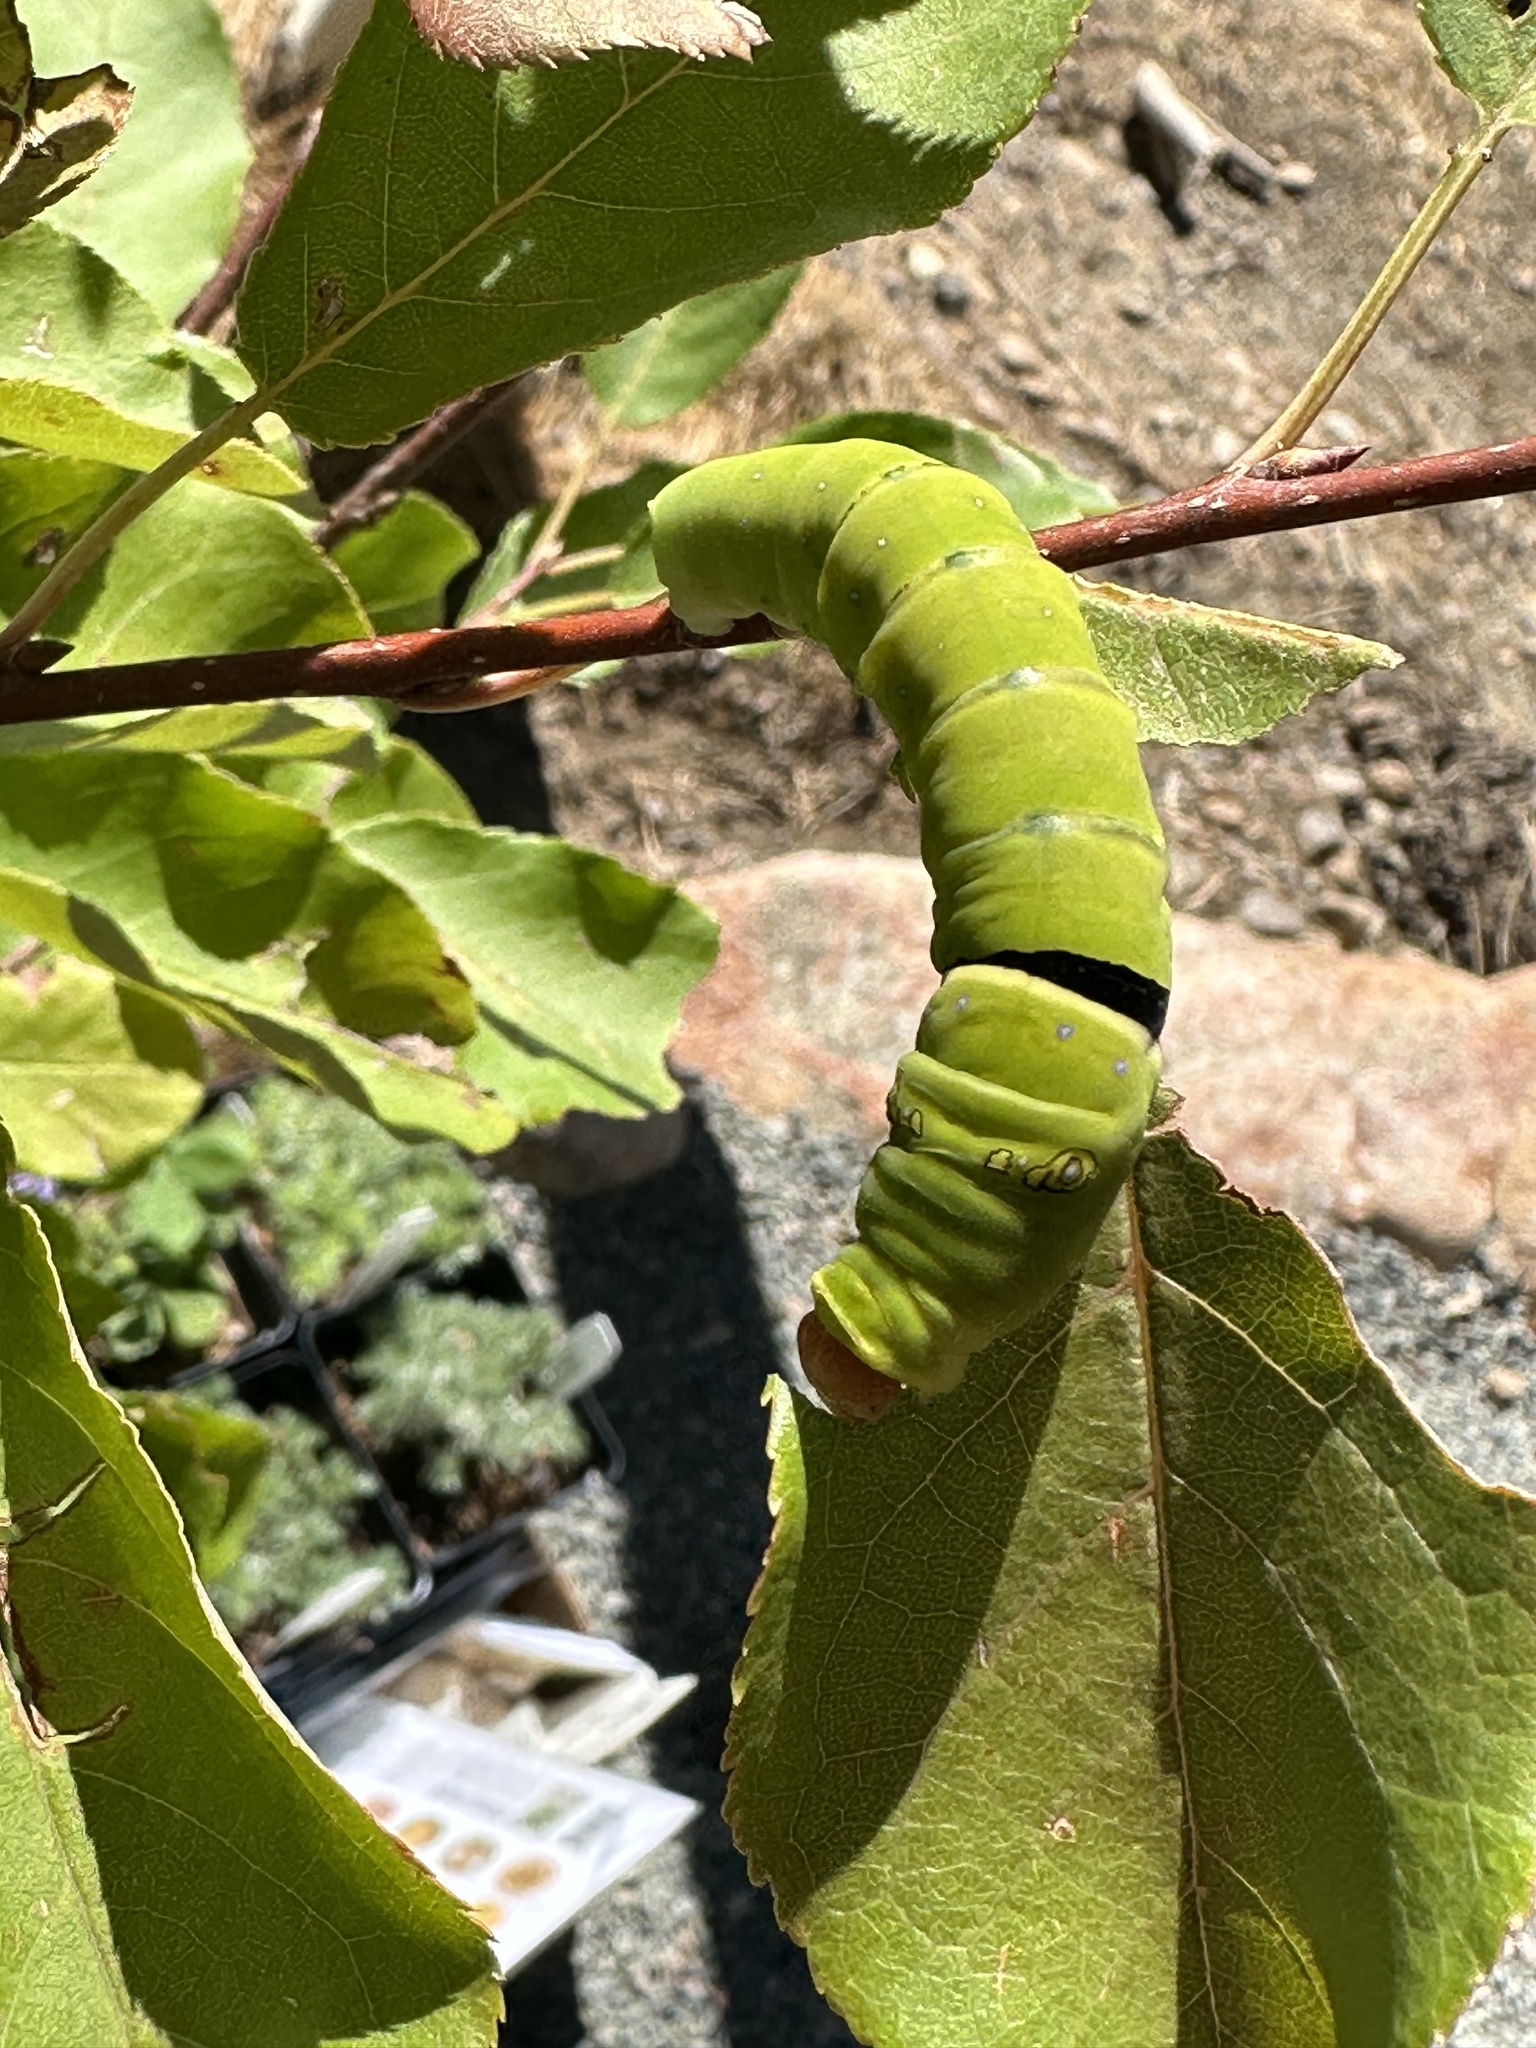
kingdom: Animalia
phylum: Arthropoda
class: Insecta
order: Lepidoptera
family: Papilionidae
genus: Papilio
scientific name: Papilio multicaudata
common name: Two-tailed tiger swallowtail
